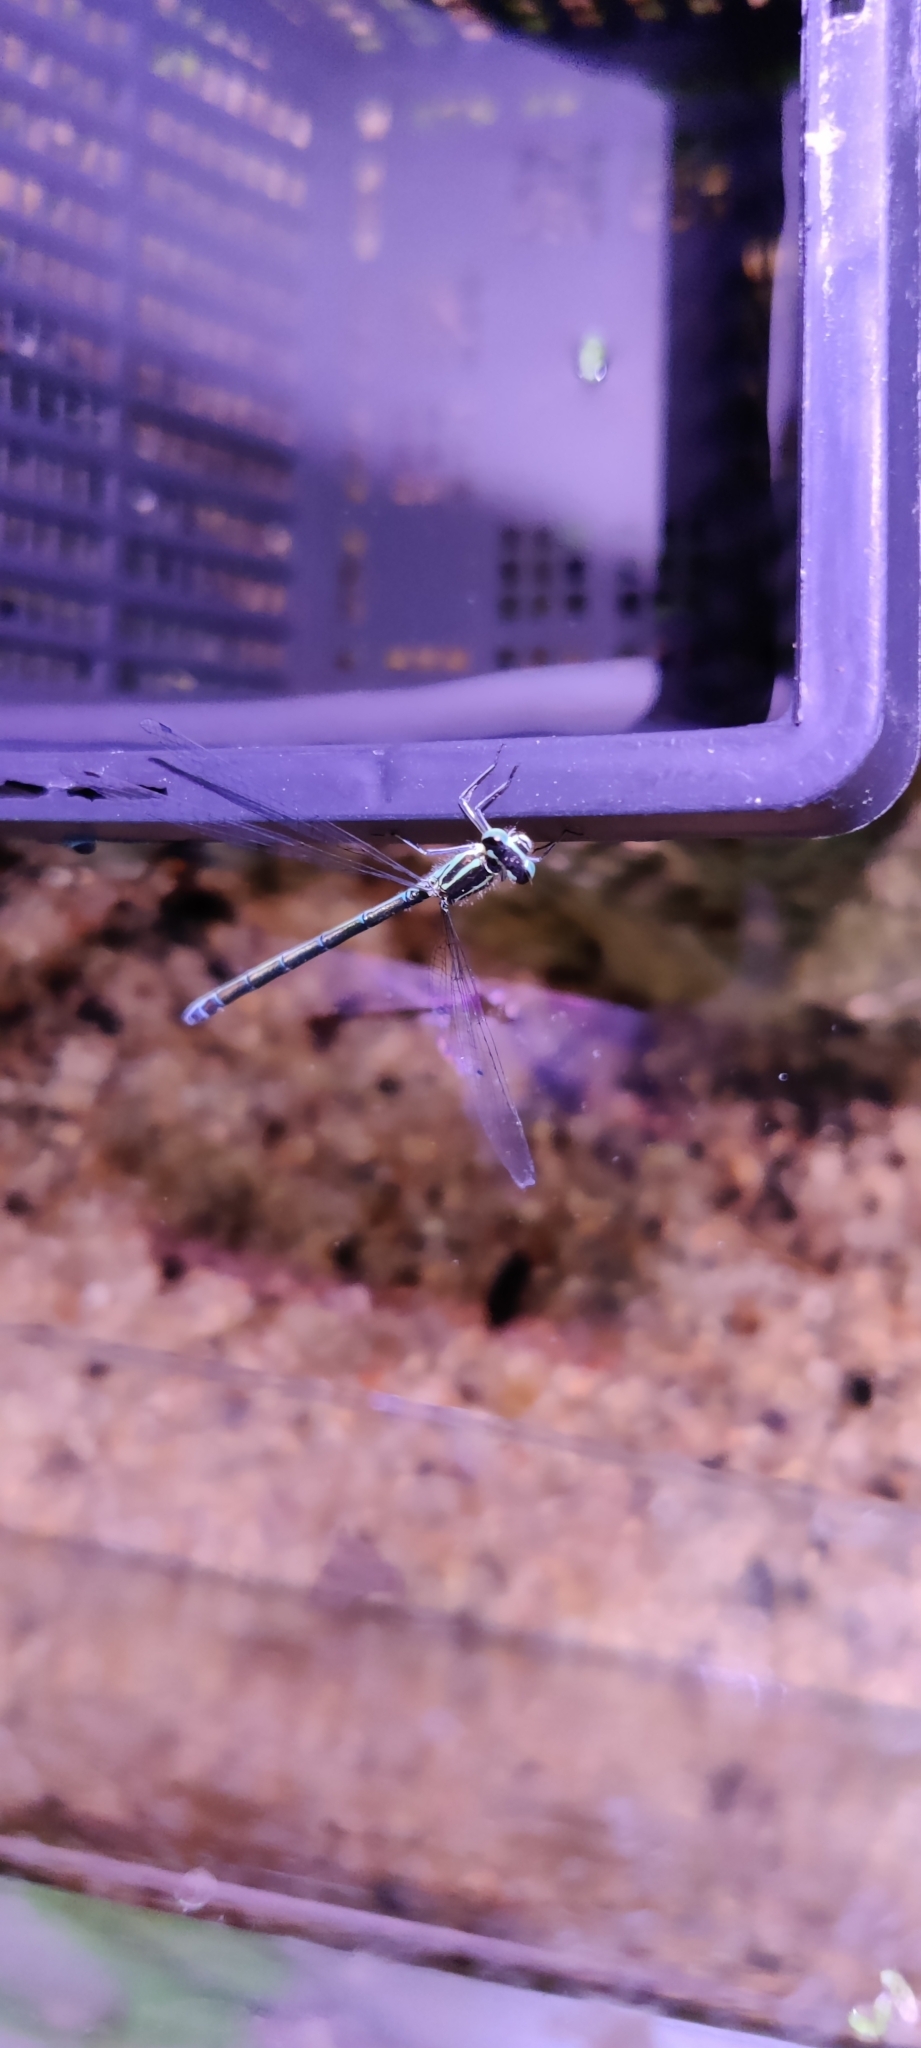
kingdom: Animalia
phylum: Arthropoda
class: Insecta
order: Odonata
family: Coenagrionidae
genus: Coenagrion
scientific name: Coenagrion puella
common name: Azure damselfly
